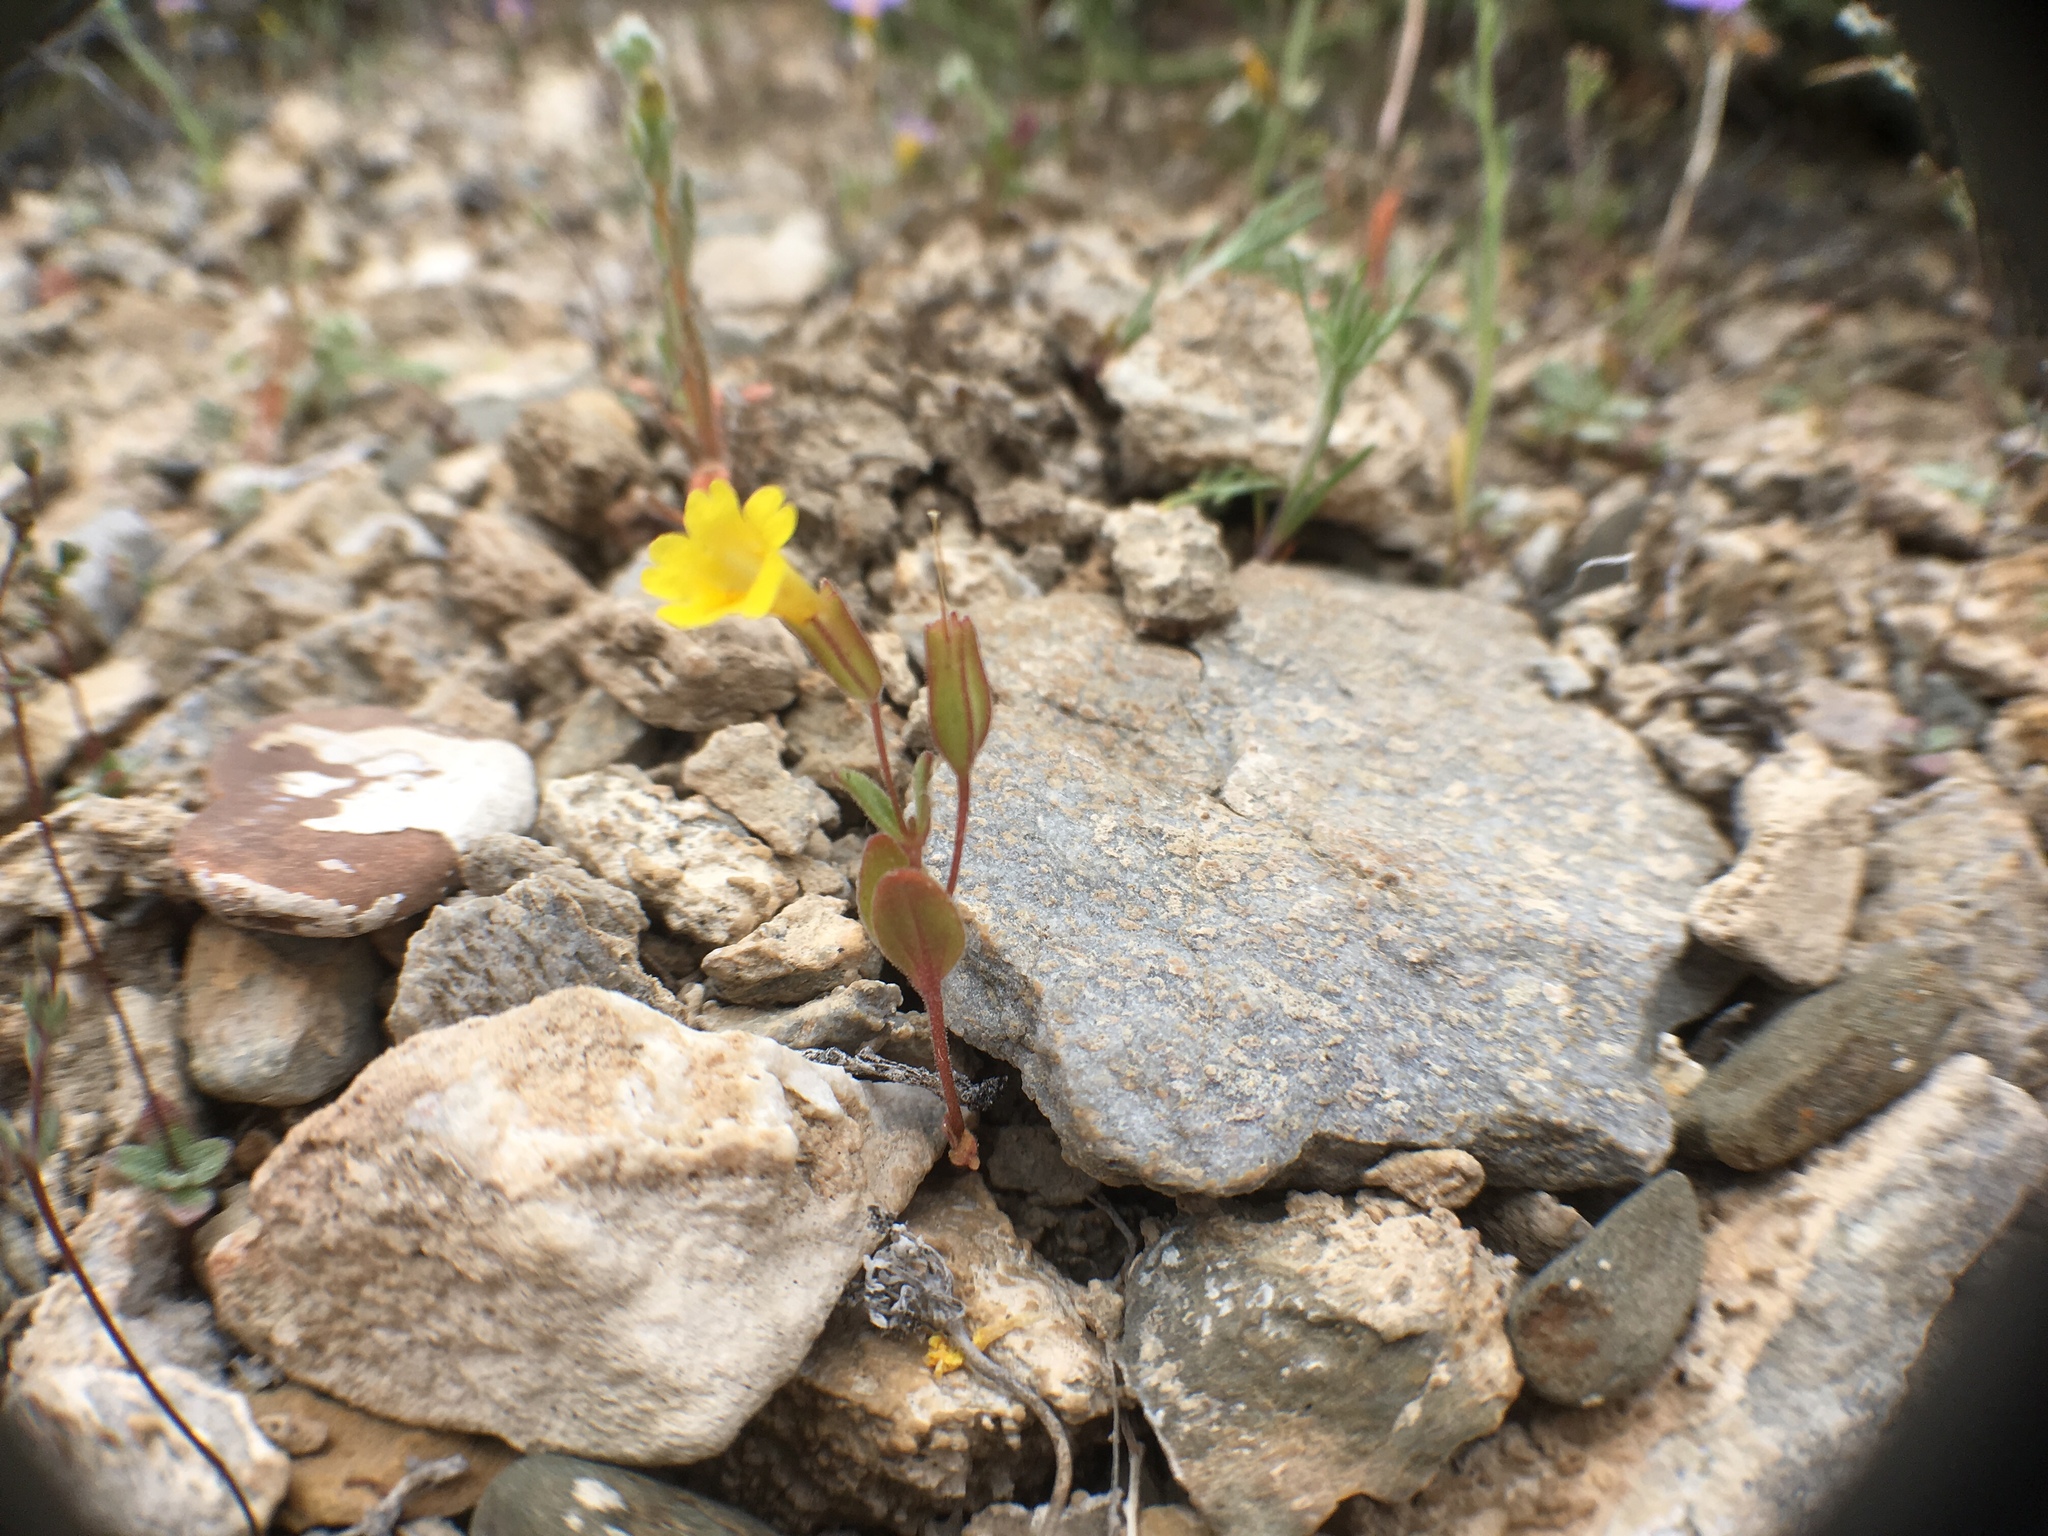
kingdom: Plantae
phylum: Tracheophyta
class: Magnoliopsida
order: Lamiales
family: Phrymaceae
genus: Erythranthe
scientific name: Erythranthe calcicola
